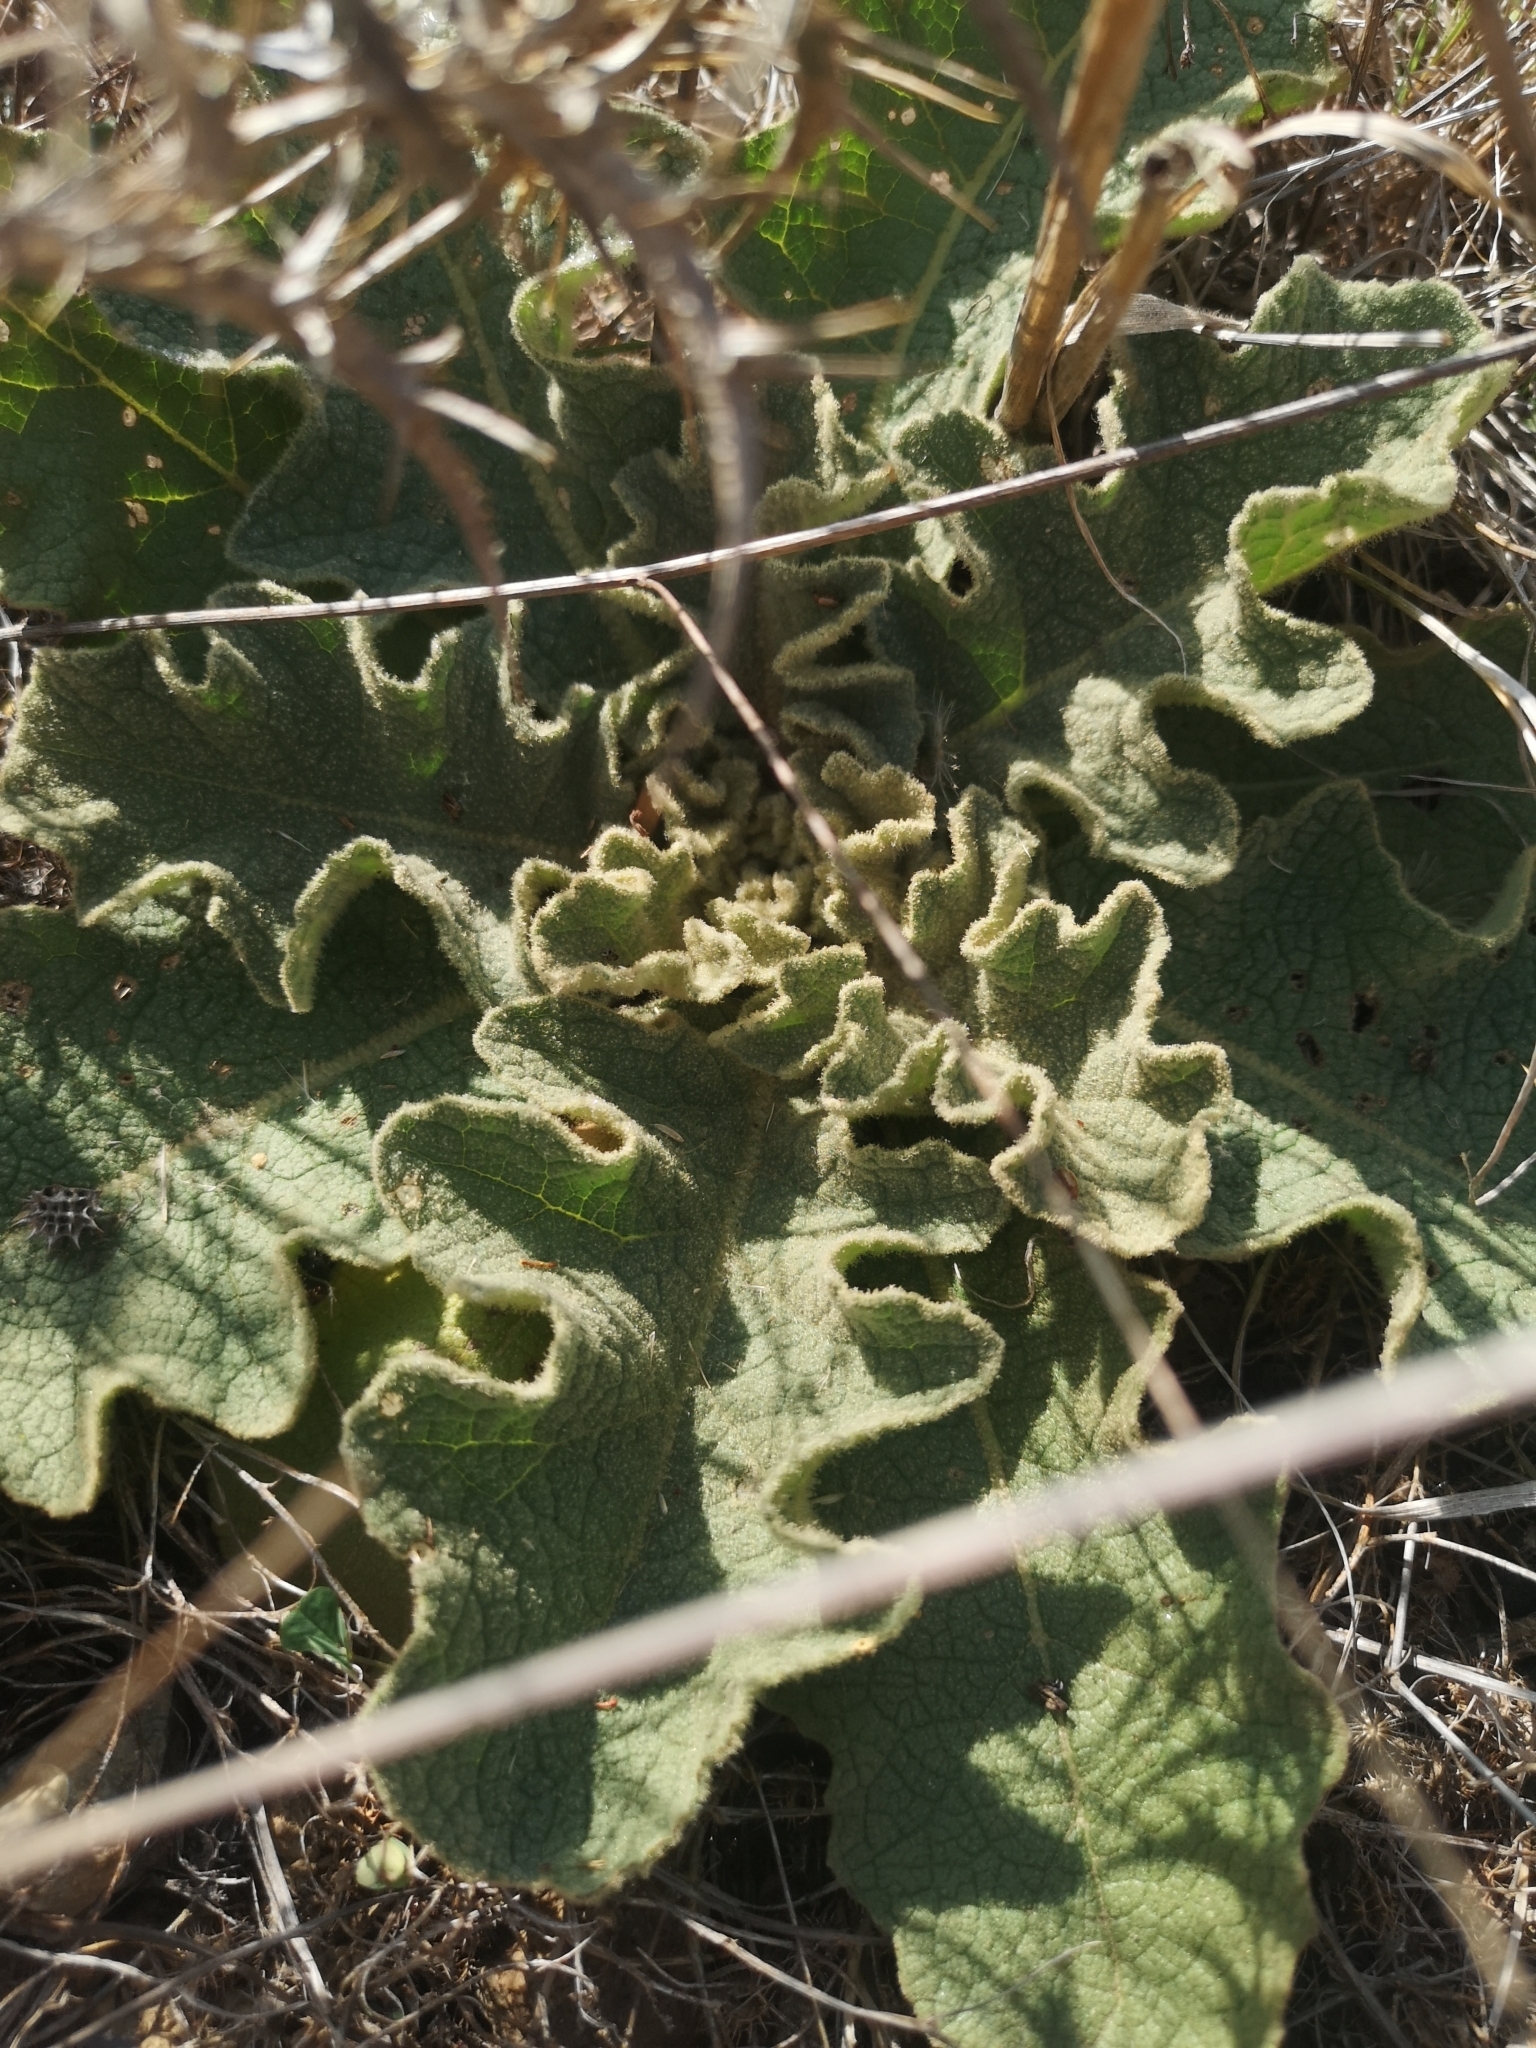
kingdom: Plantae
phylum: Tracheophyta
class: Magnoliopsida
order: Lamiales
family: Scrophulariaceae
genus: Verbascum
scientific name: Verbascum sinuatum
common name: Wavyleaf mullein
